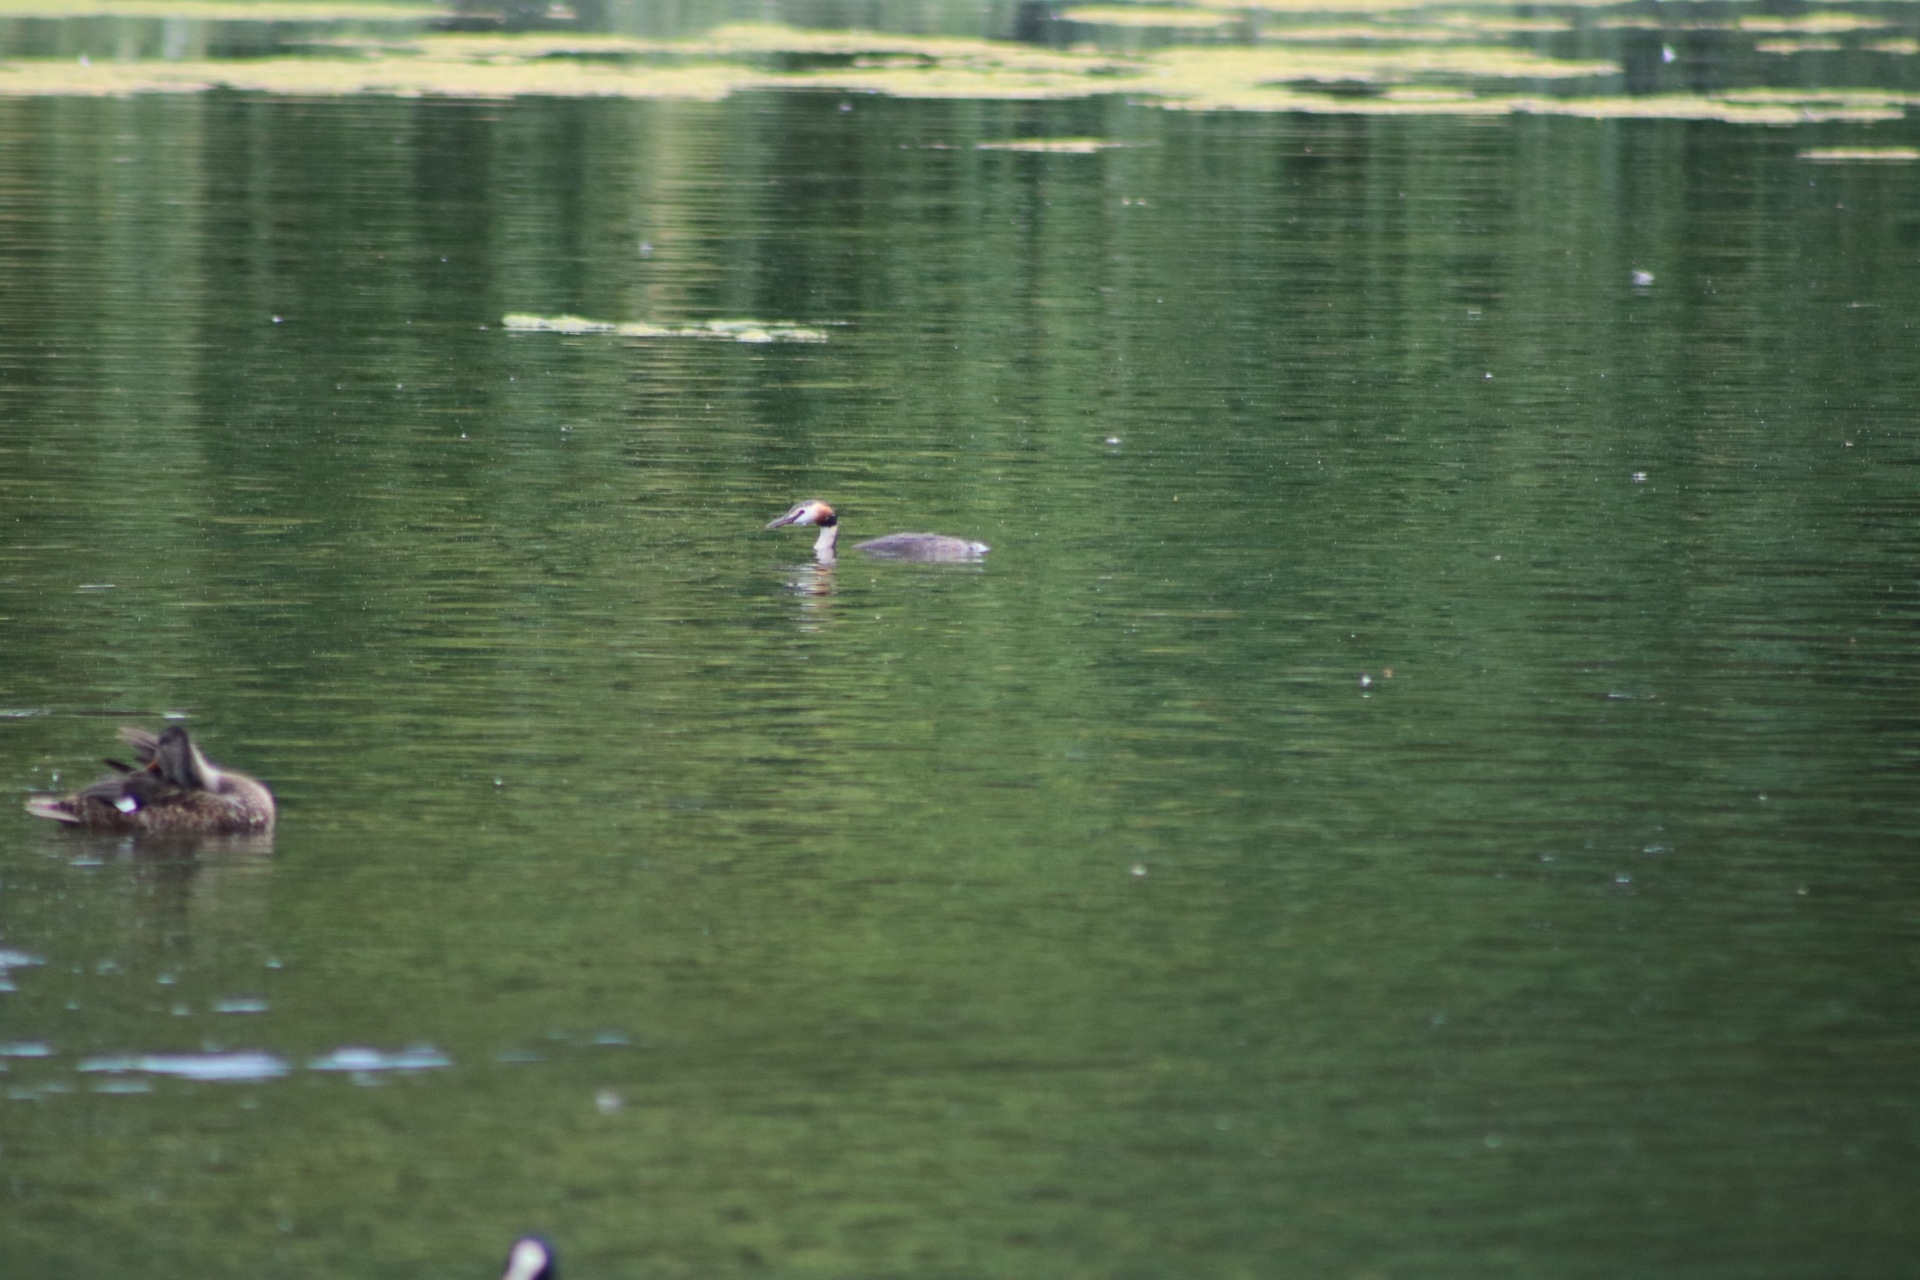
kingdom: Animalia
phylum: Chordata
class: Aves
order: Podicipediformes
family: Podicipedidae
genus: Podiceps
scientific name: Podiceps cristatus
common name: Great crested grebe
